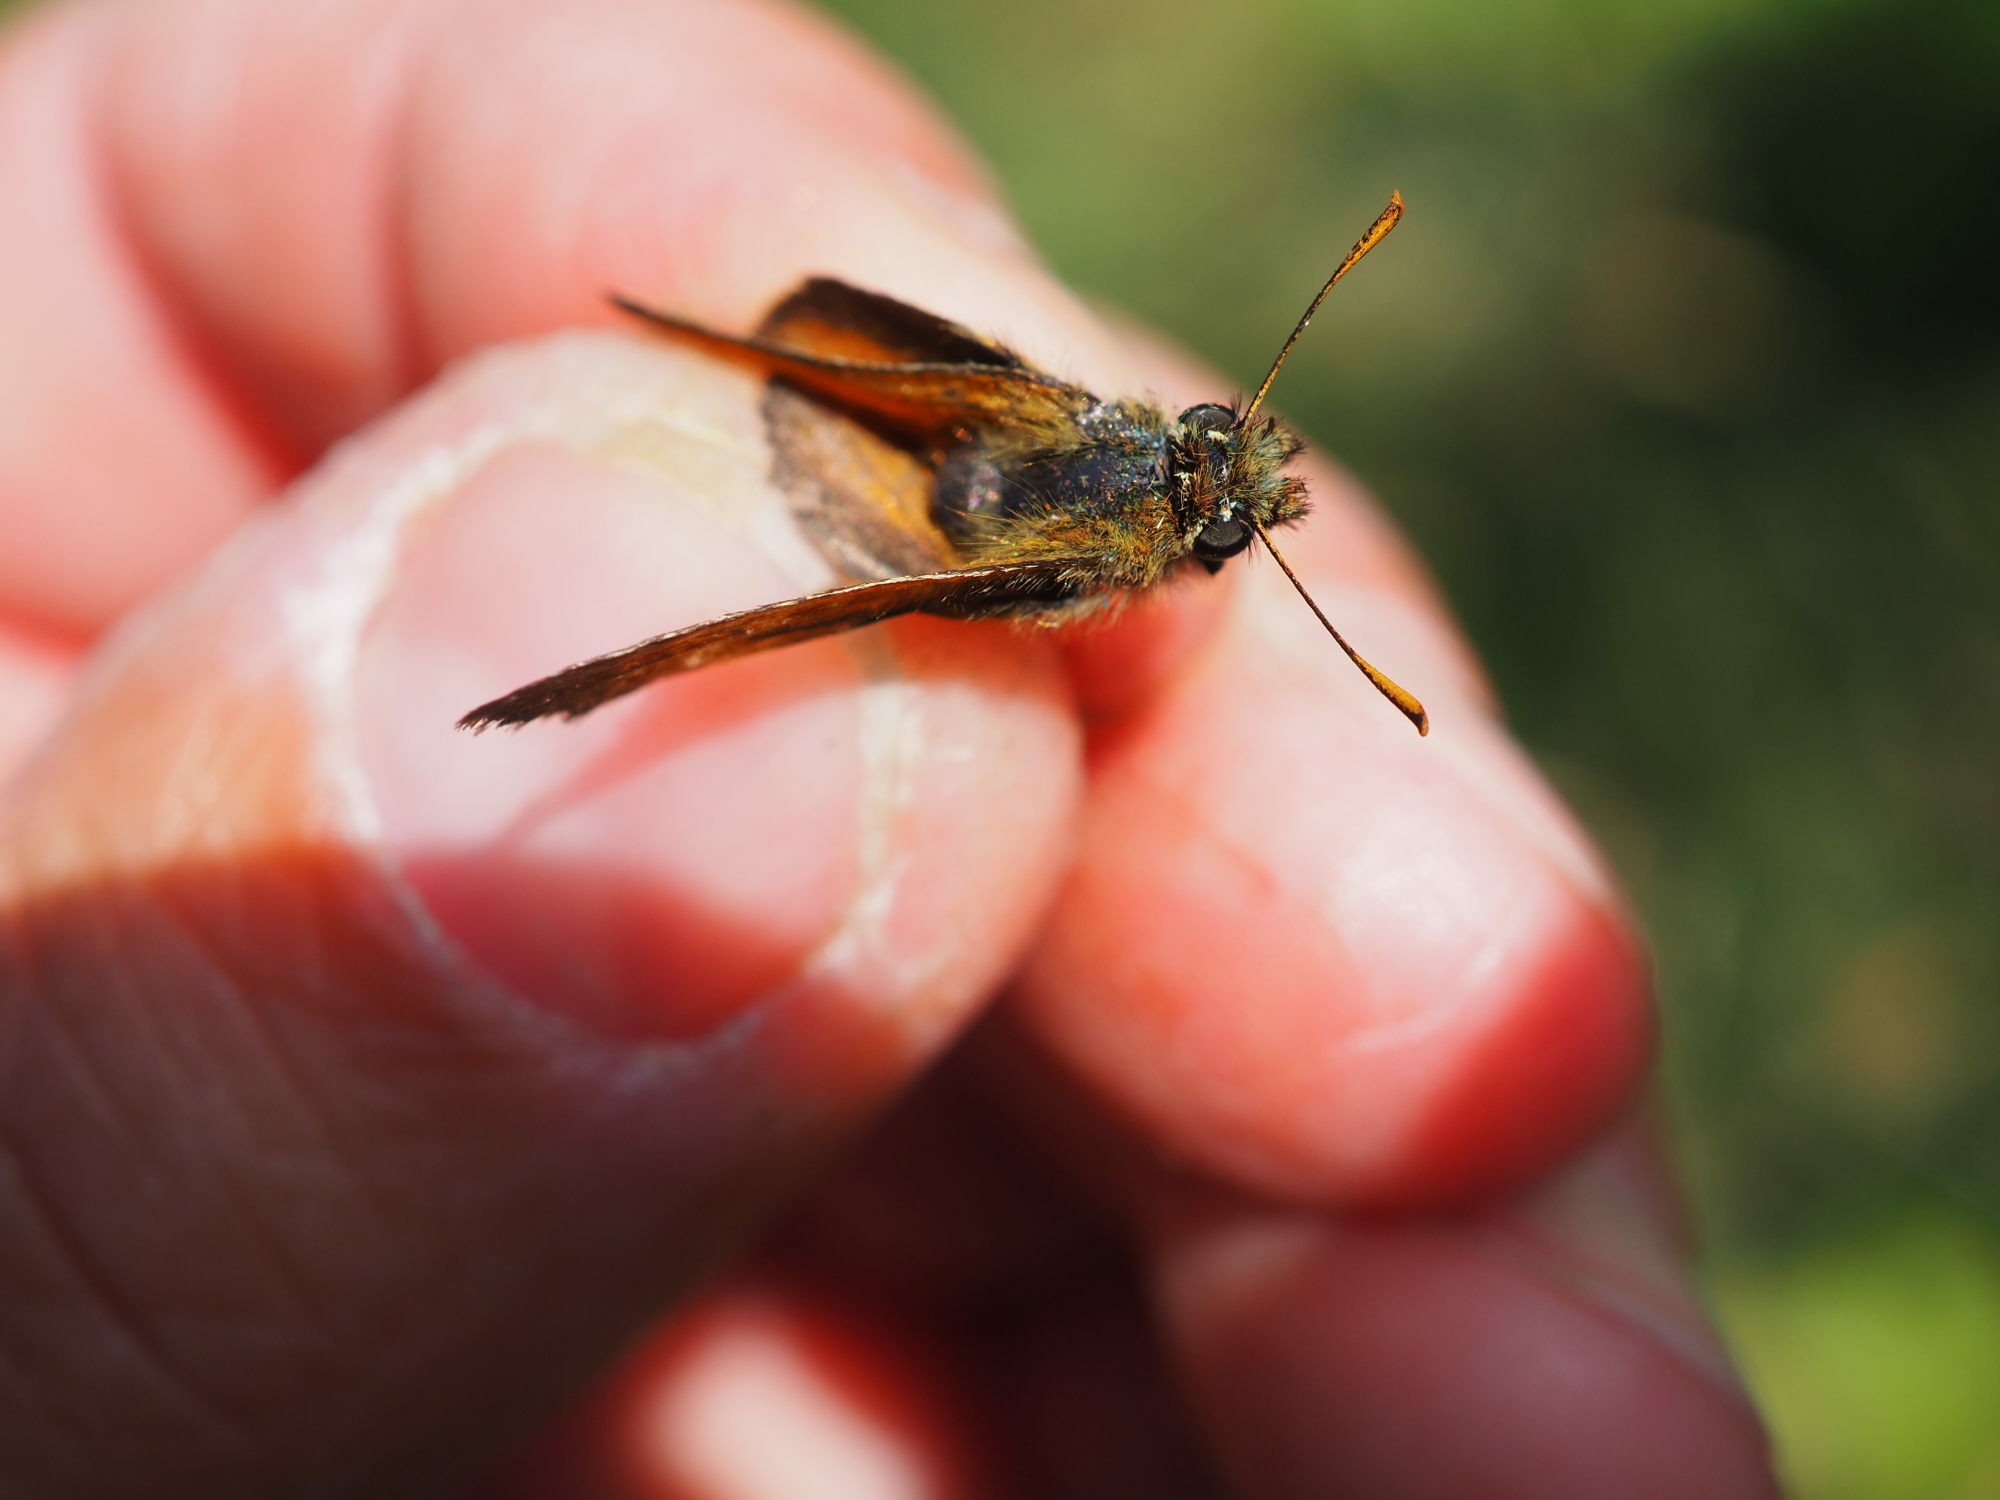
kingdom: Animalia
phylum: Arthropoda
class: Insecta
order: Lepidoptera
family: Hesperiidae
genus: Thymelicus
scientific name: Thymelicus sylvestris
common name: Small skipper
